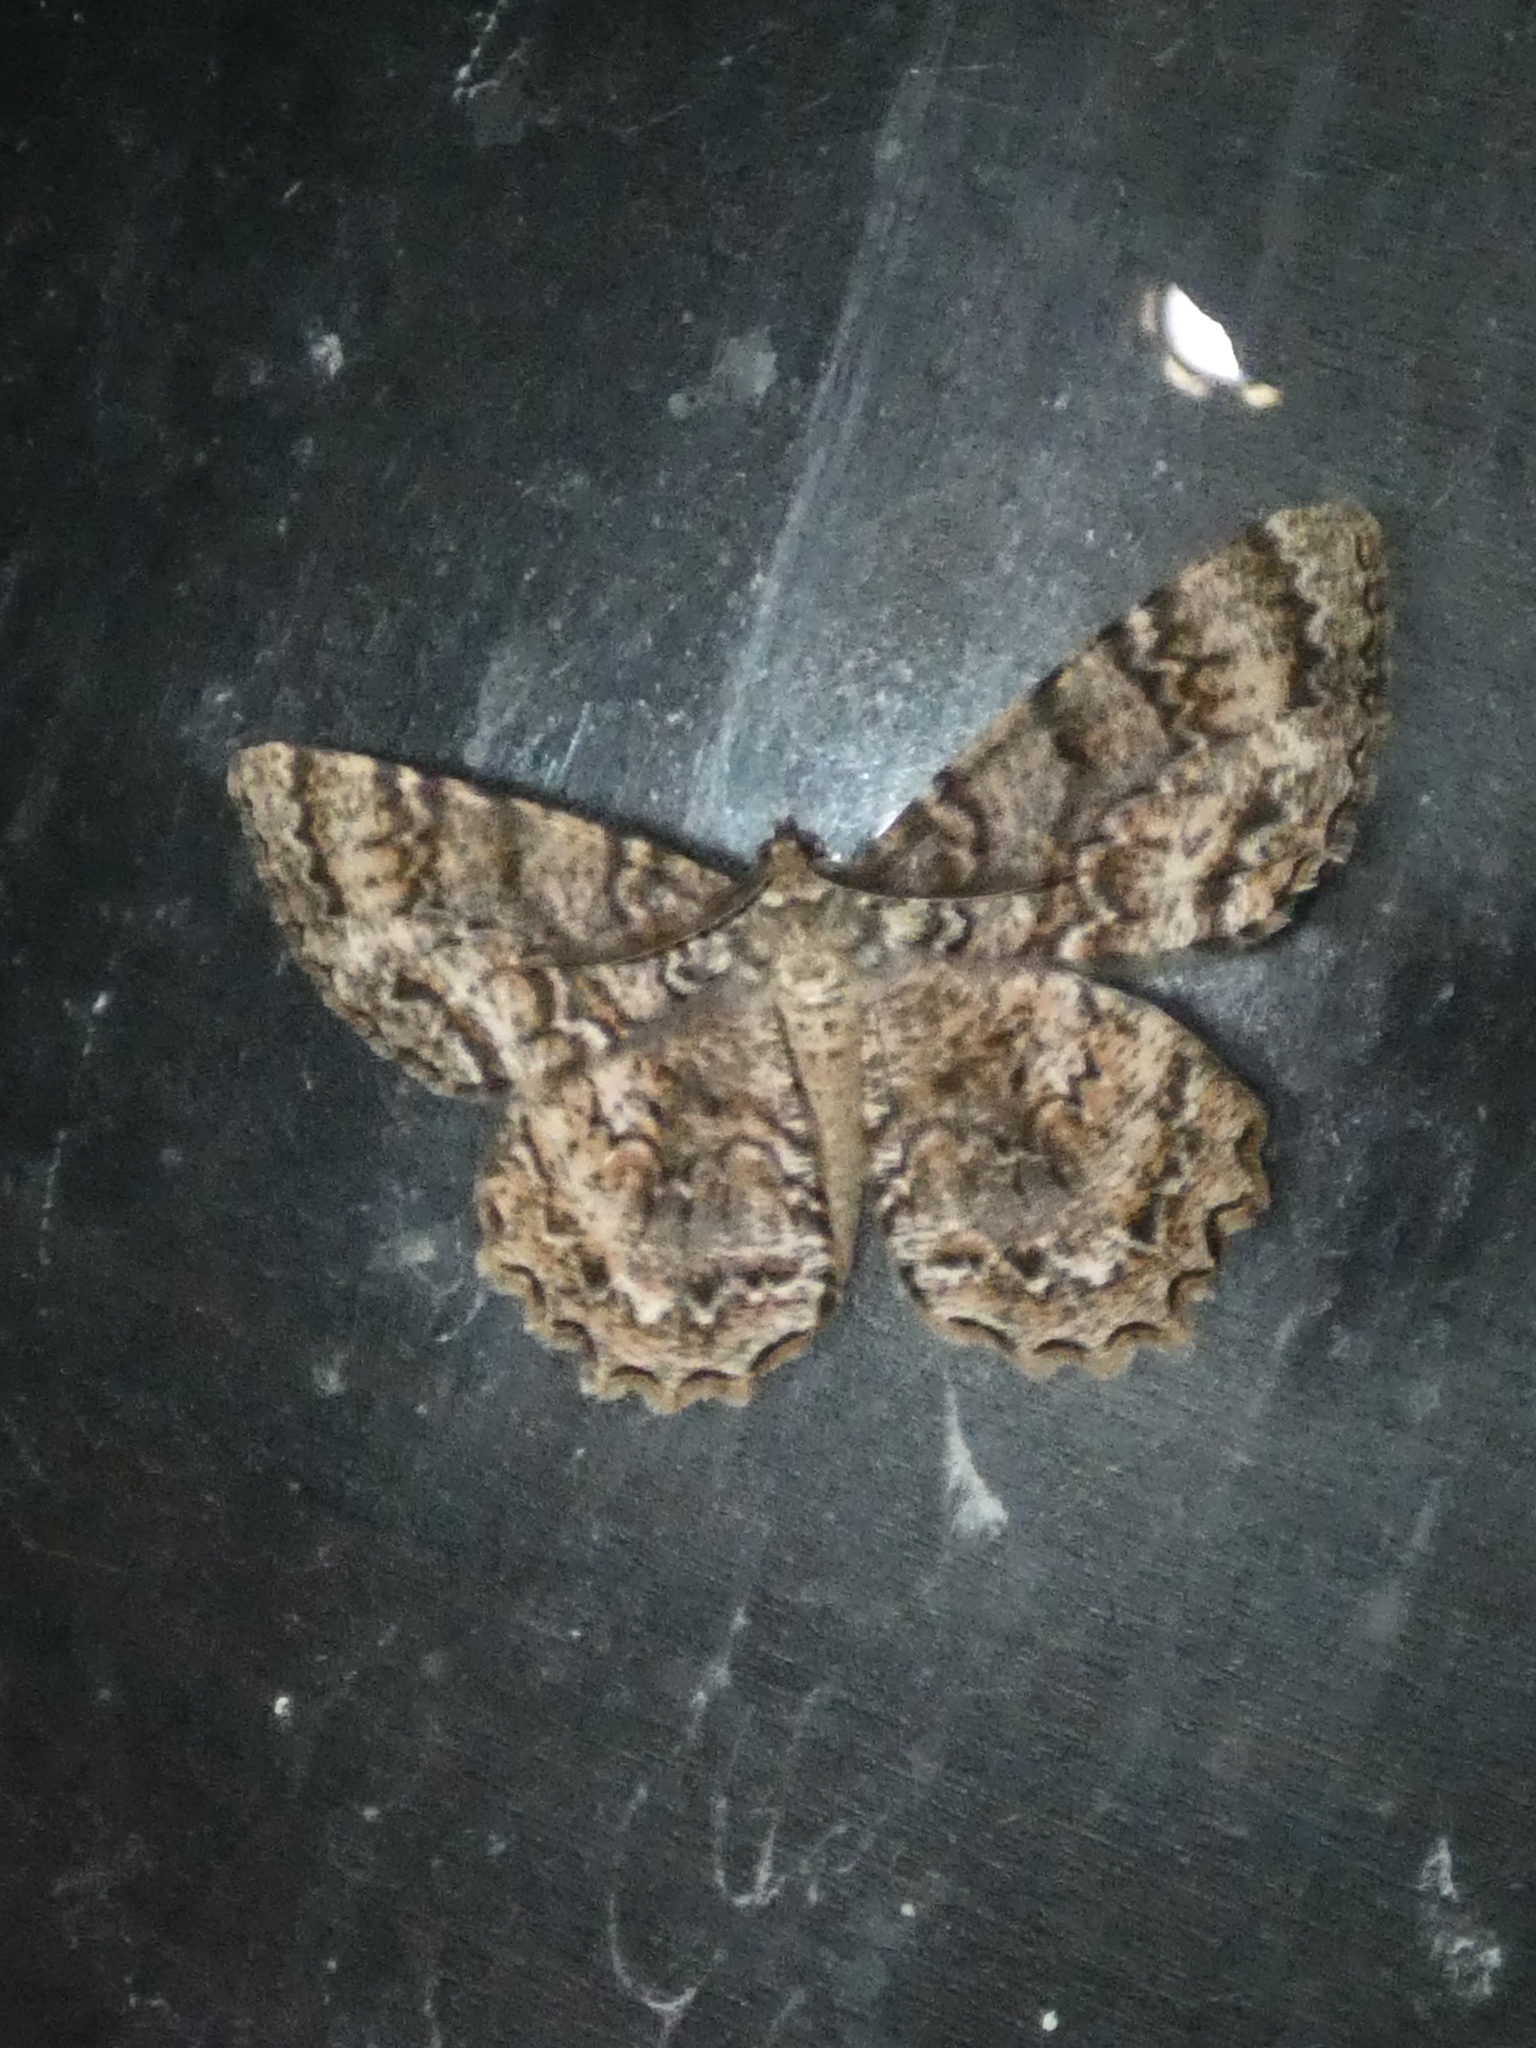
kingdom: Animalia
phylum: Arthropoda
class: Insecta
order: Lepidoptera
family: Geometridae
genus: Epimecis
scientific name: Epimecis hortaria
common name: Tulip-tree beauty
